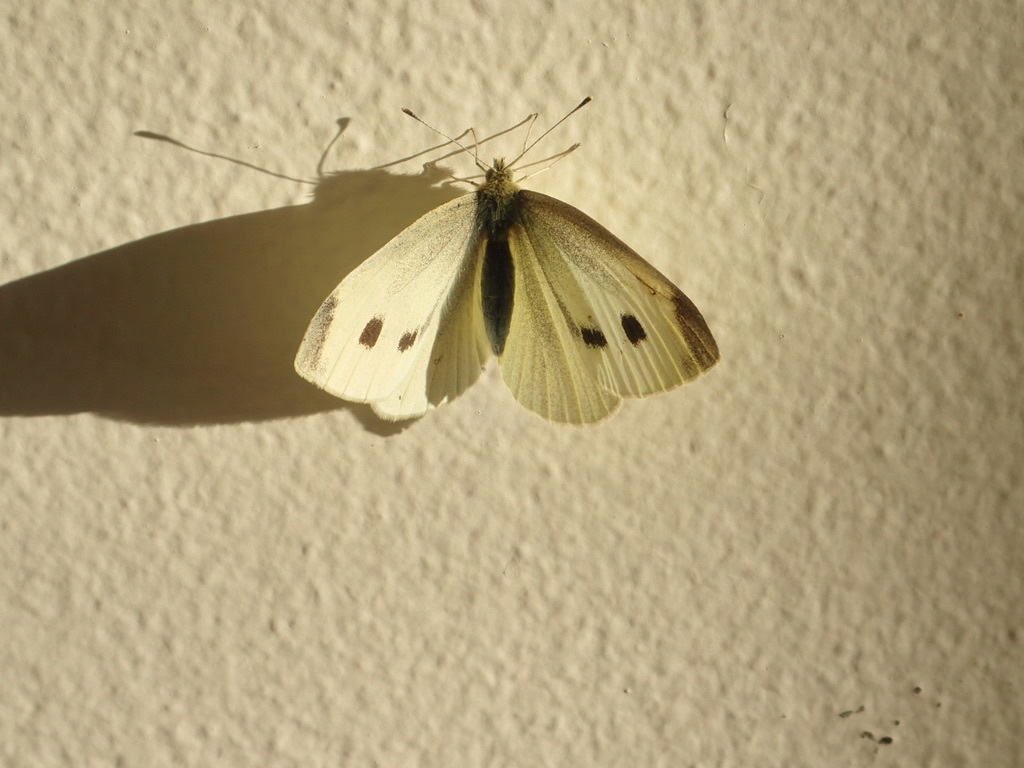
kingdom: Animalia
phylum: Arthropoda
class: Insecta
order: Lepidoptera
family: Pieridae
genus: Pieris
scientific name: Pieris rapae
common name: Small white
